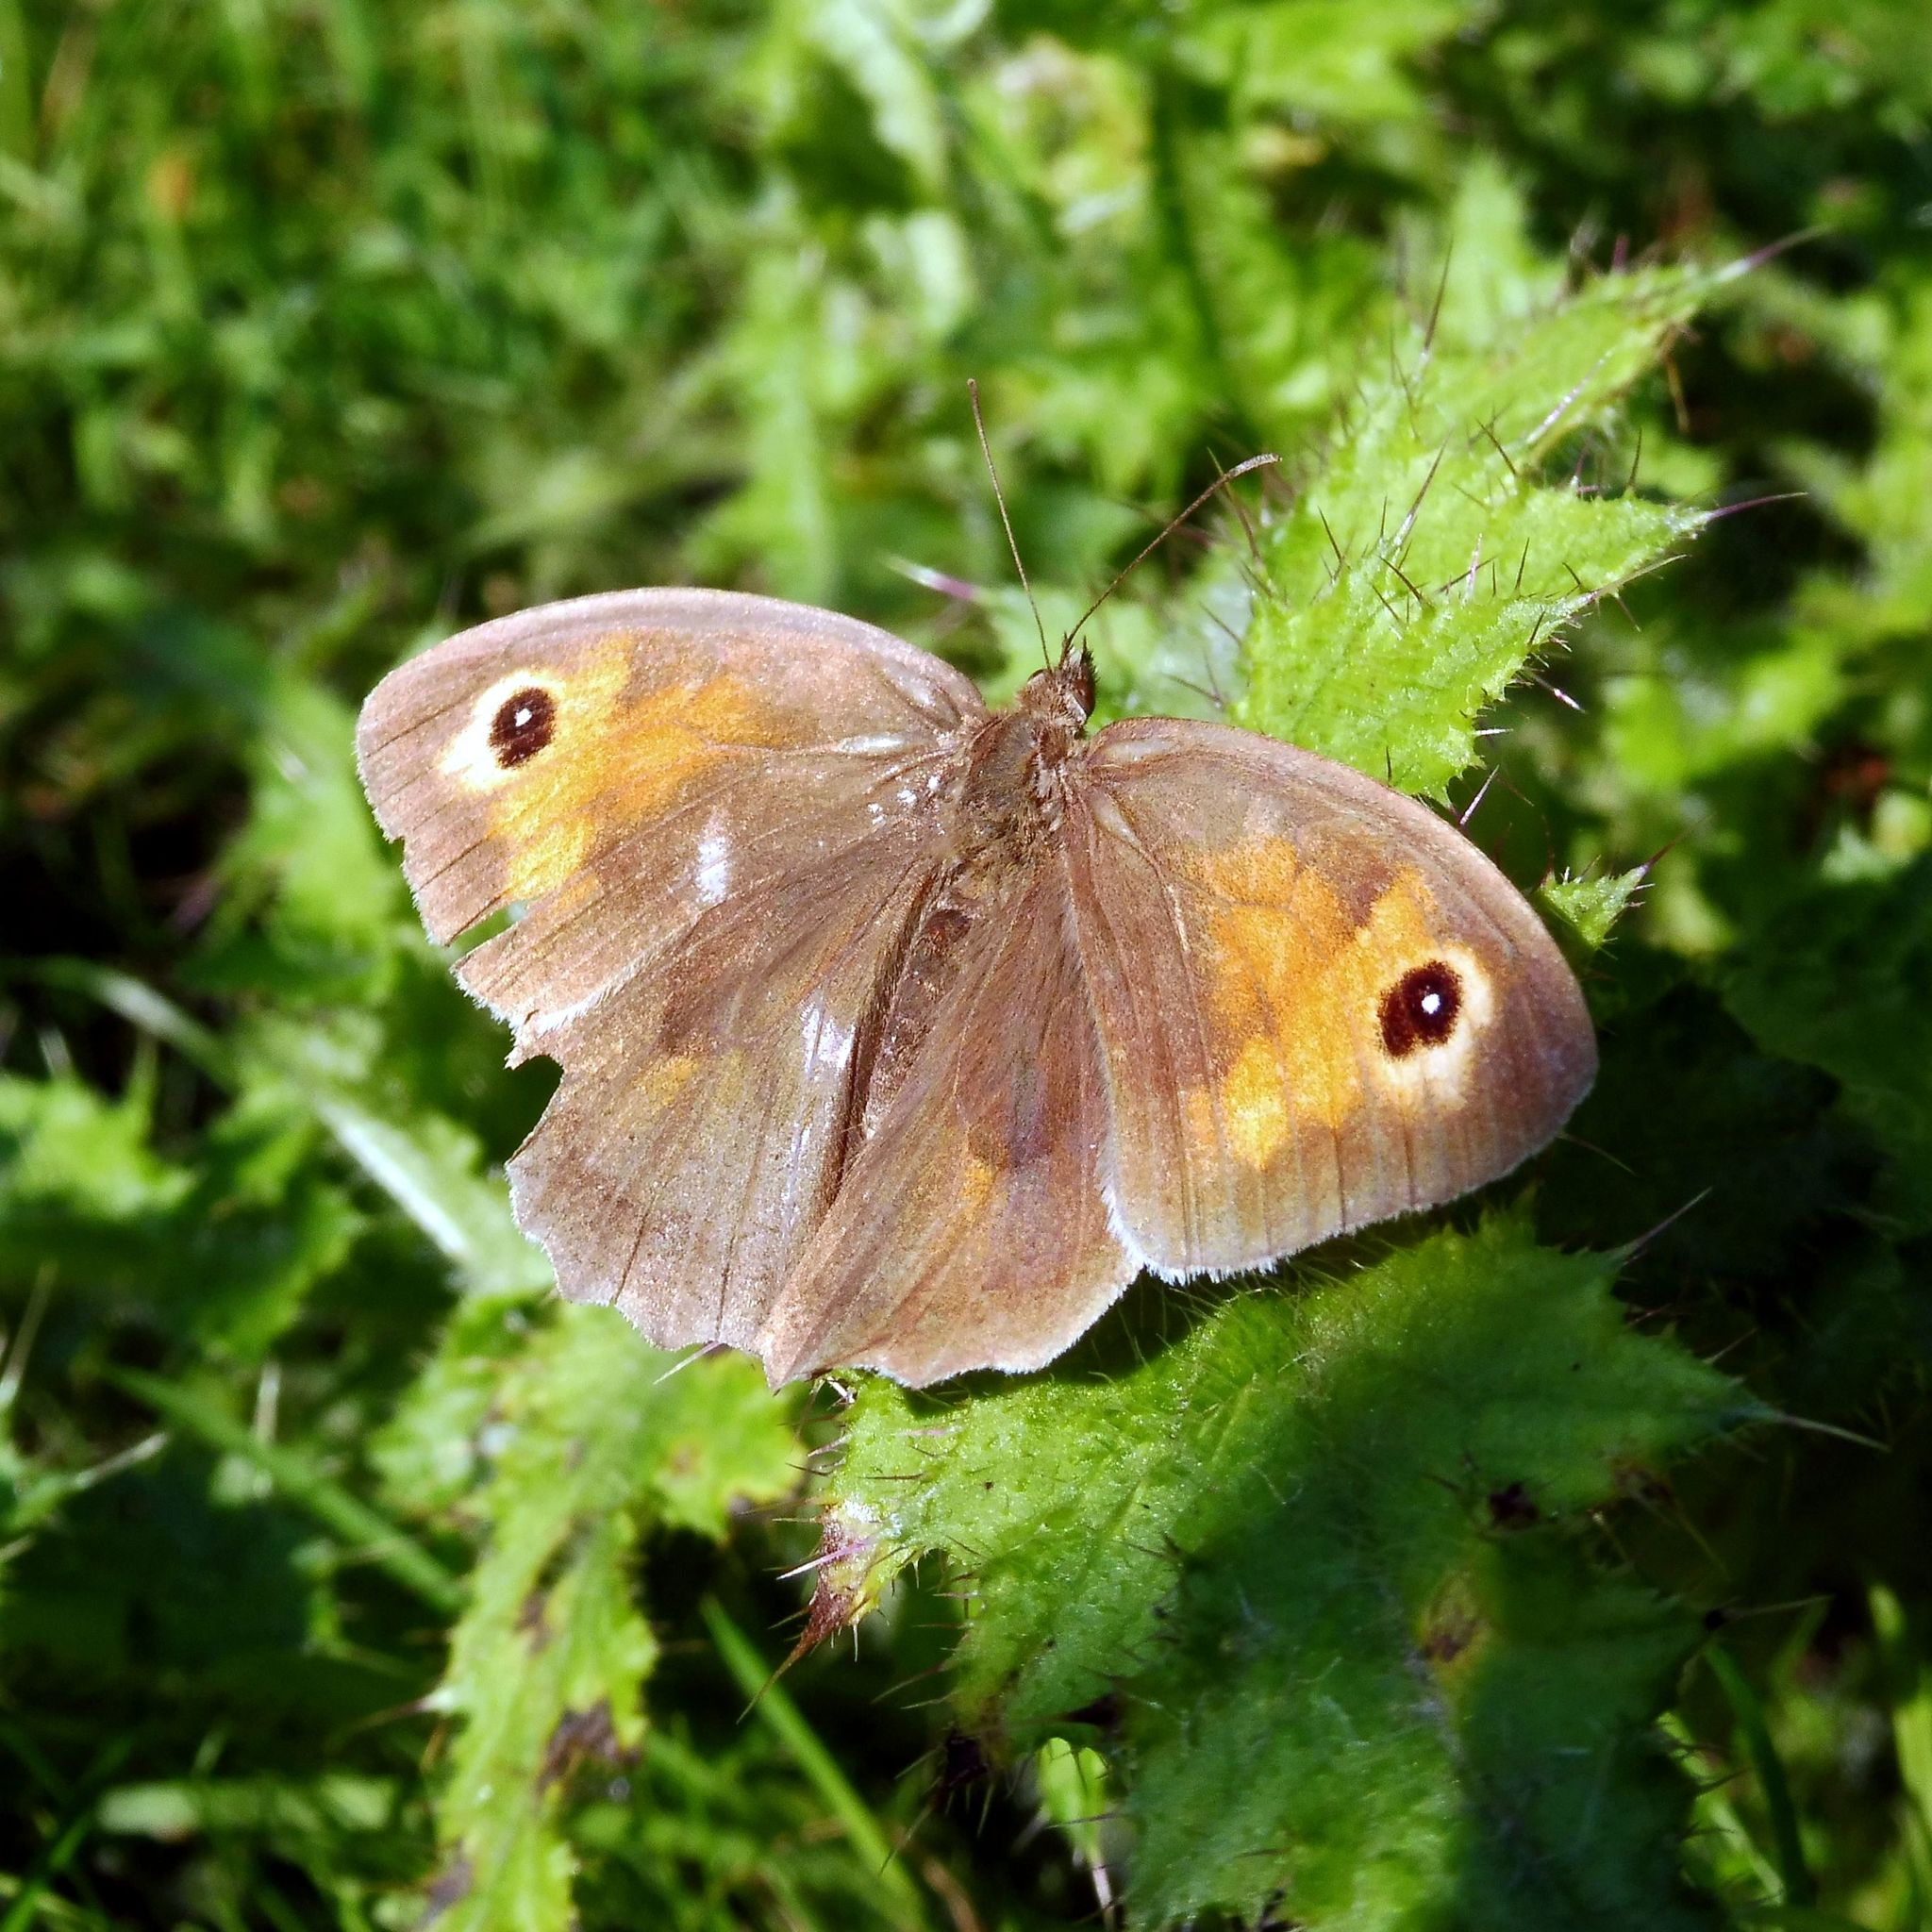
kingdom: Animalia
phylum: Arthropoda
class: Insecta
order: Lepidoptera
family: Nymphalidae
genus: Maniola
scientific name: Maniola jurtina
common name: Meadow brown
